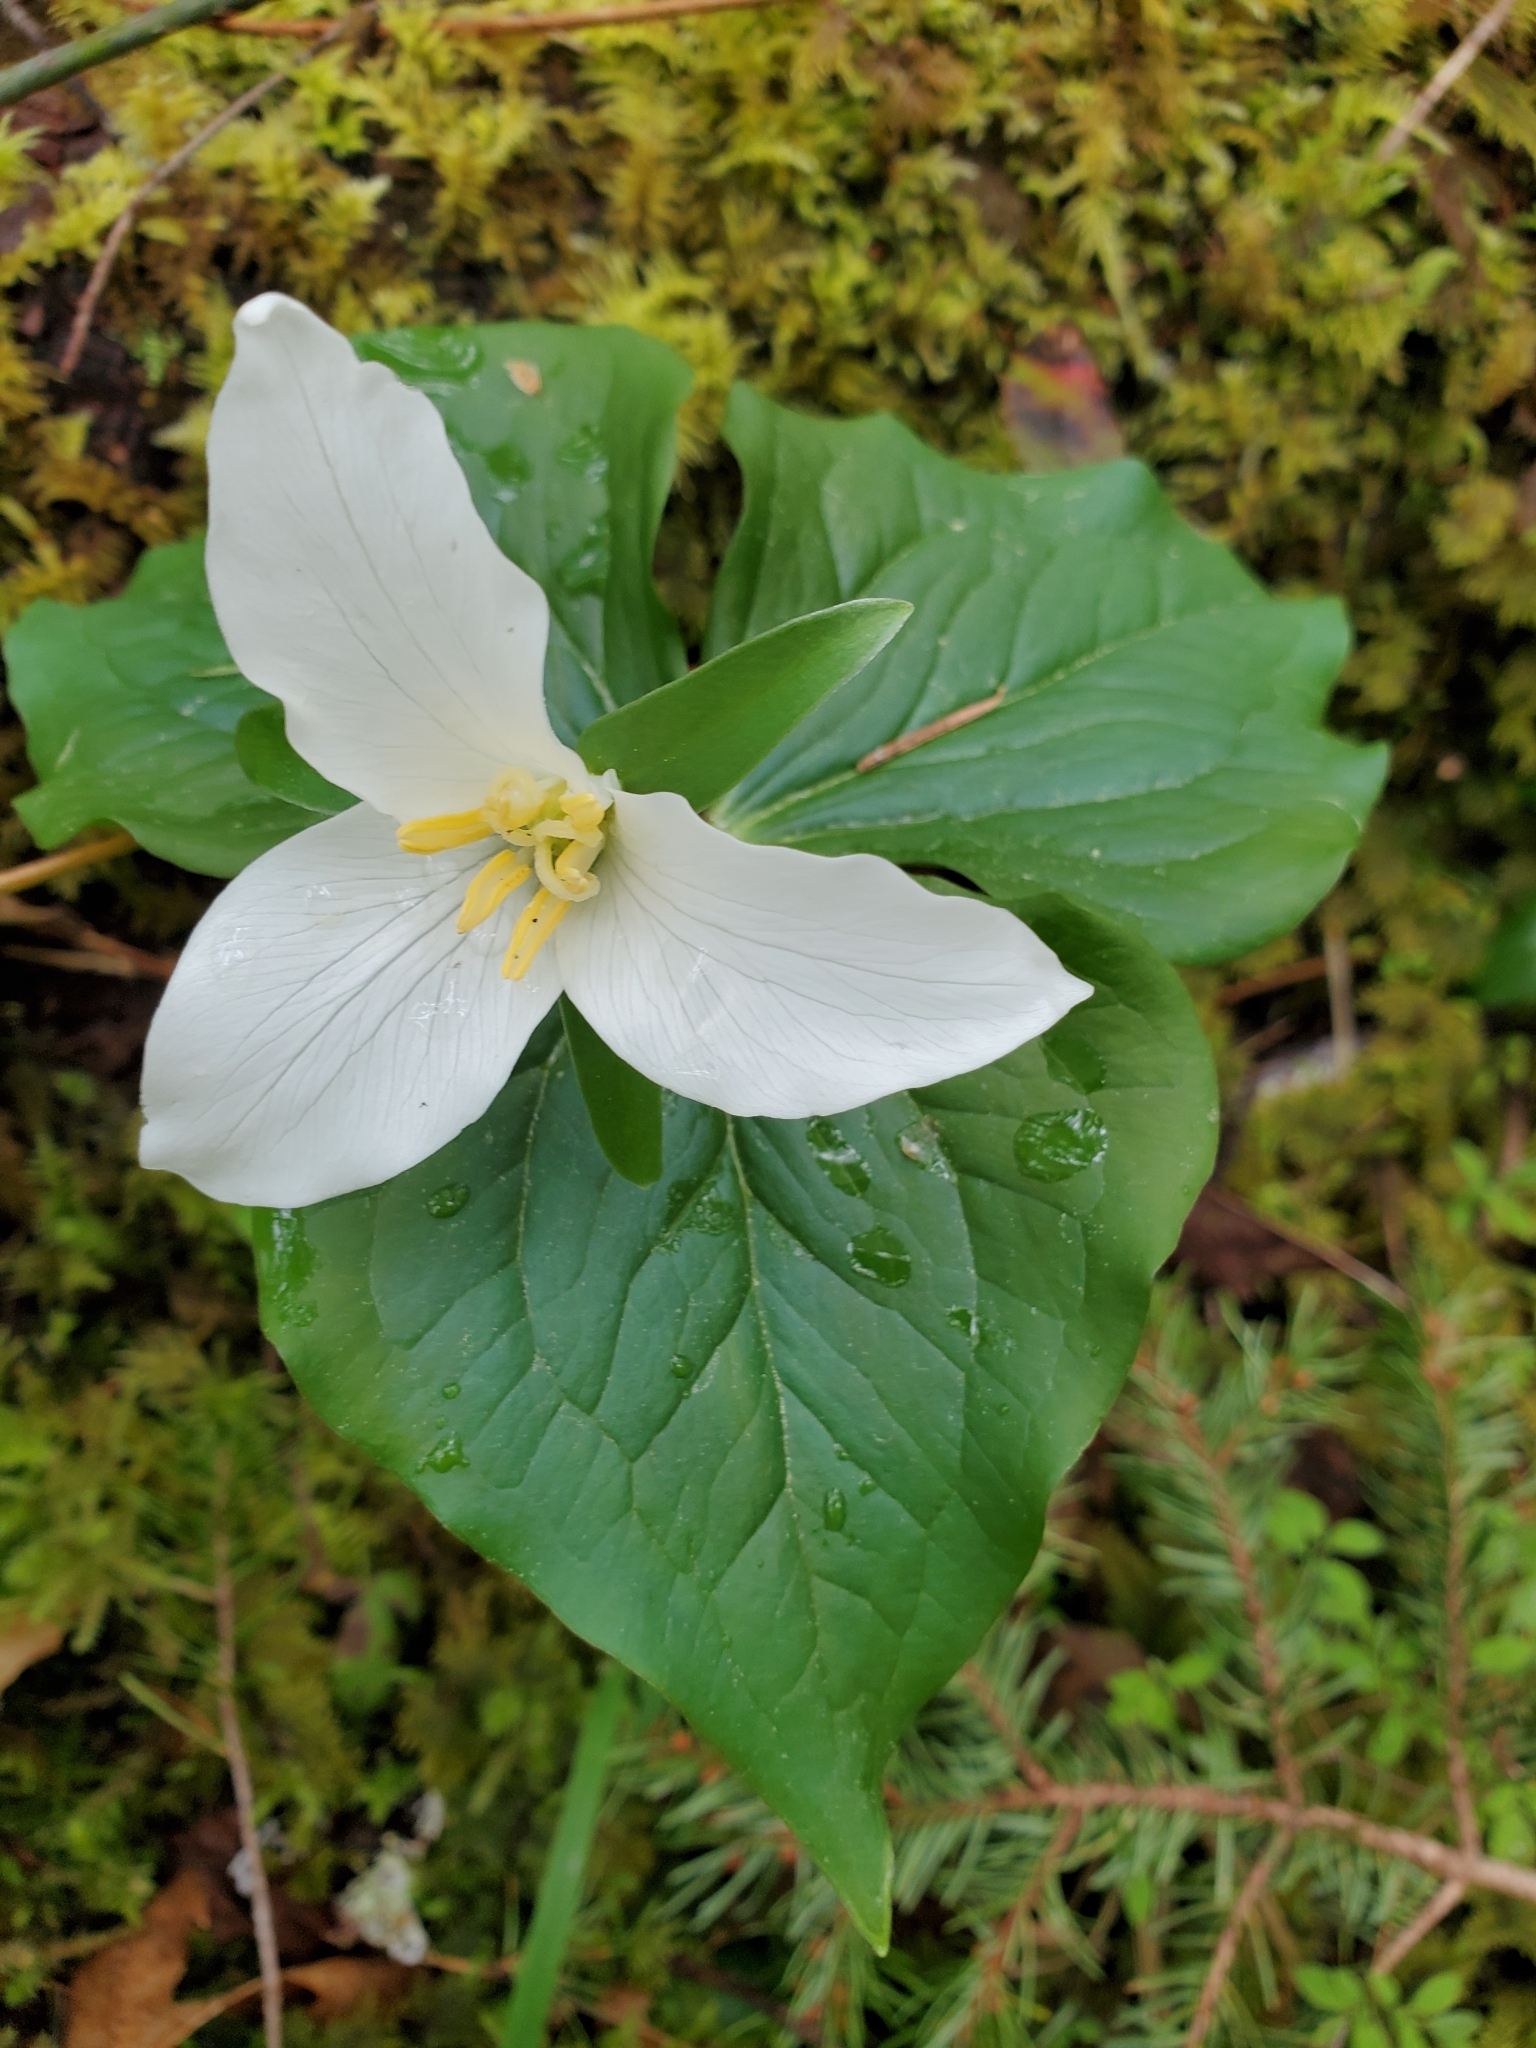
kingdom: Plantae
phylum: Tracheophyta
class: Liliopsida
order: Liliales
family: Melanthiaceae
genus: Trillium
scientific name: Trillium ovatum
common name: Pacific trillium
